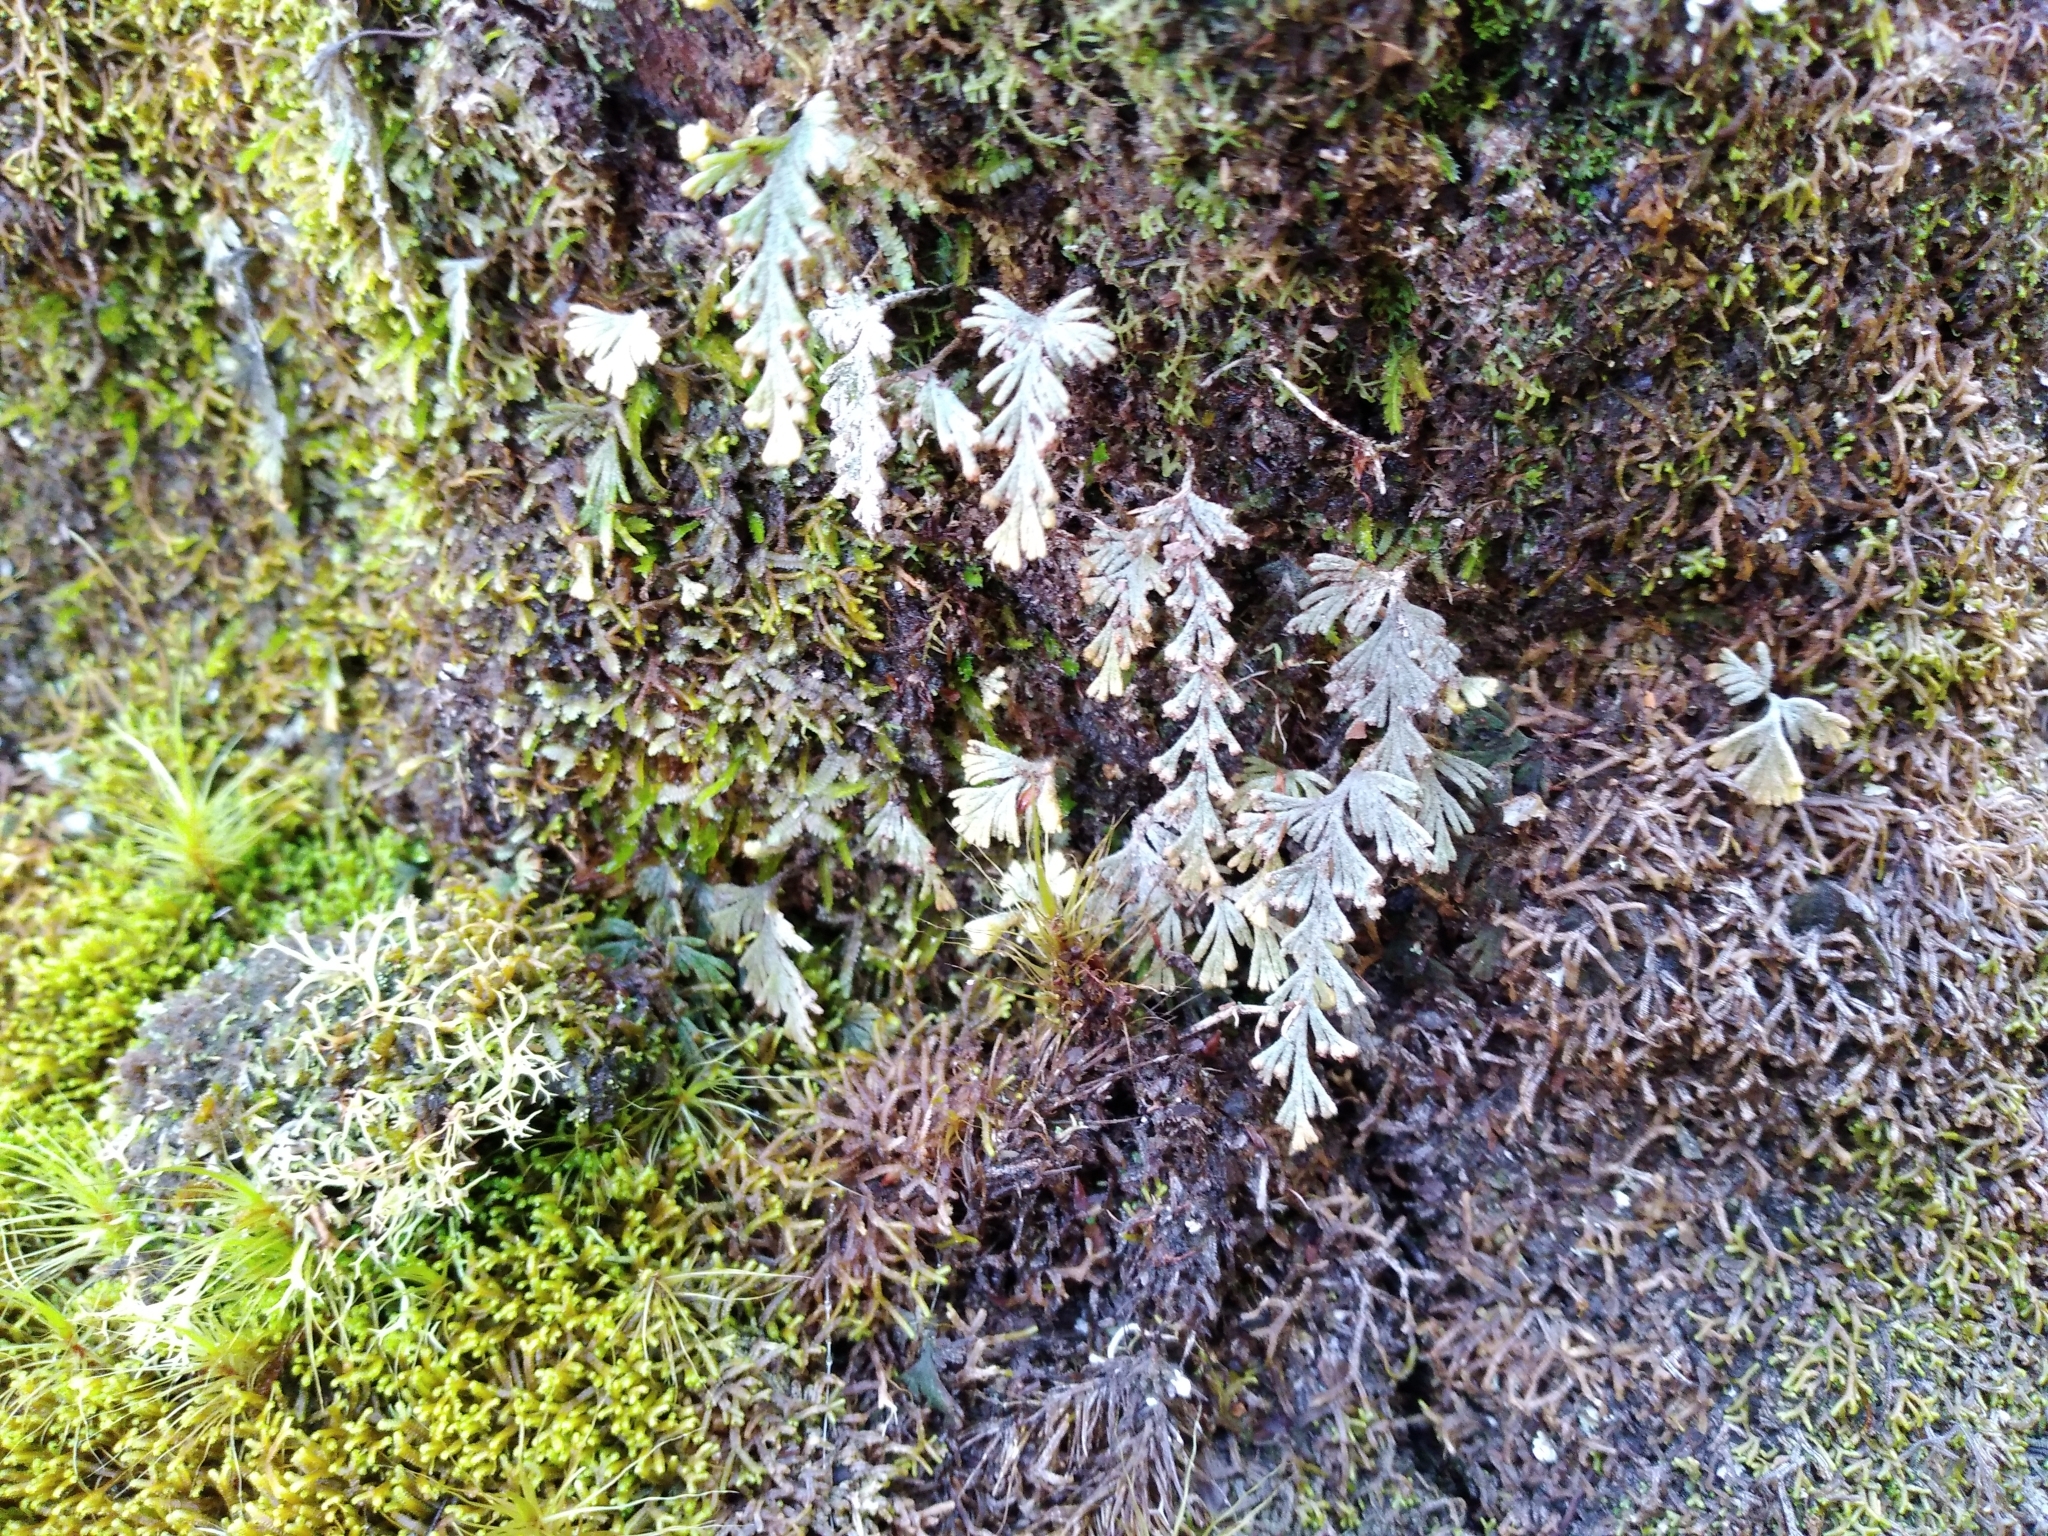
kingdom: Plantae
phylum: Tracheophyta
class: Polypodiopsida
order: Hymenophyllales
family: Hymenophyllaceae
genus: Hymenophyllum
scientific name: Hymenophyllum malingii
